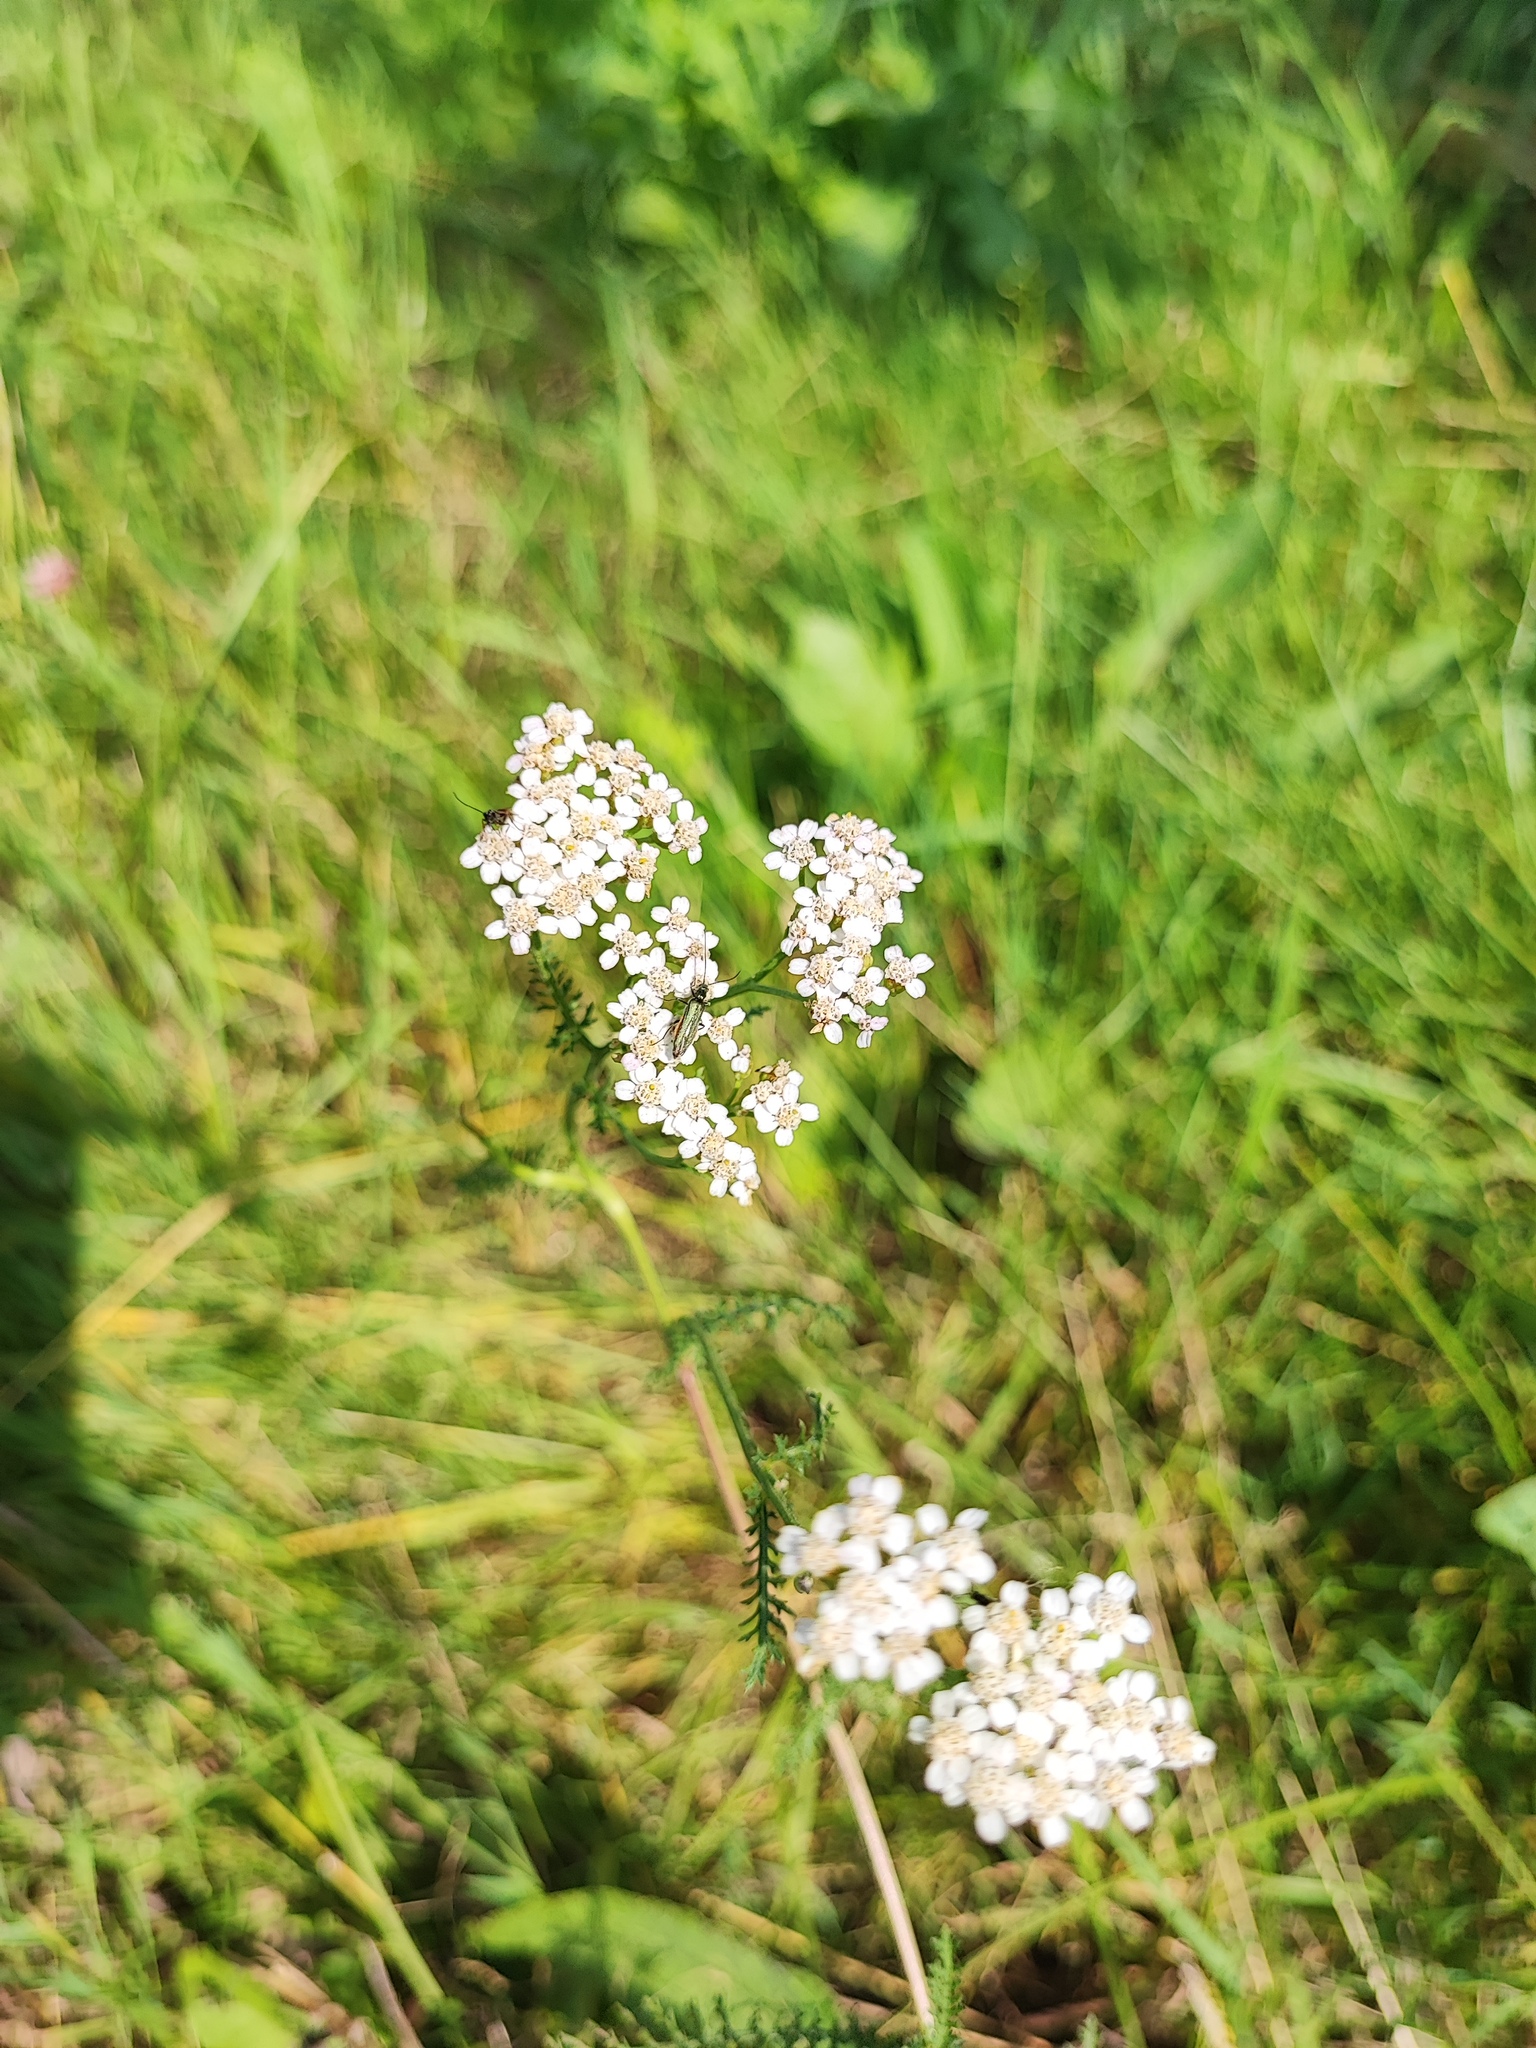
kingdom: Plantae
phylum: Tracheophyta
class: Magnoliopsida
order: Asterales
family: Asteraceae
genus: Achillea
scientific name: Achillea millefolium
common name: Yarrow
